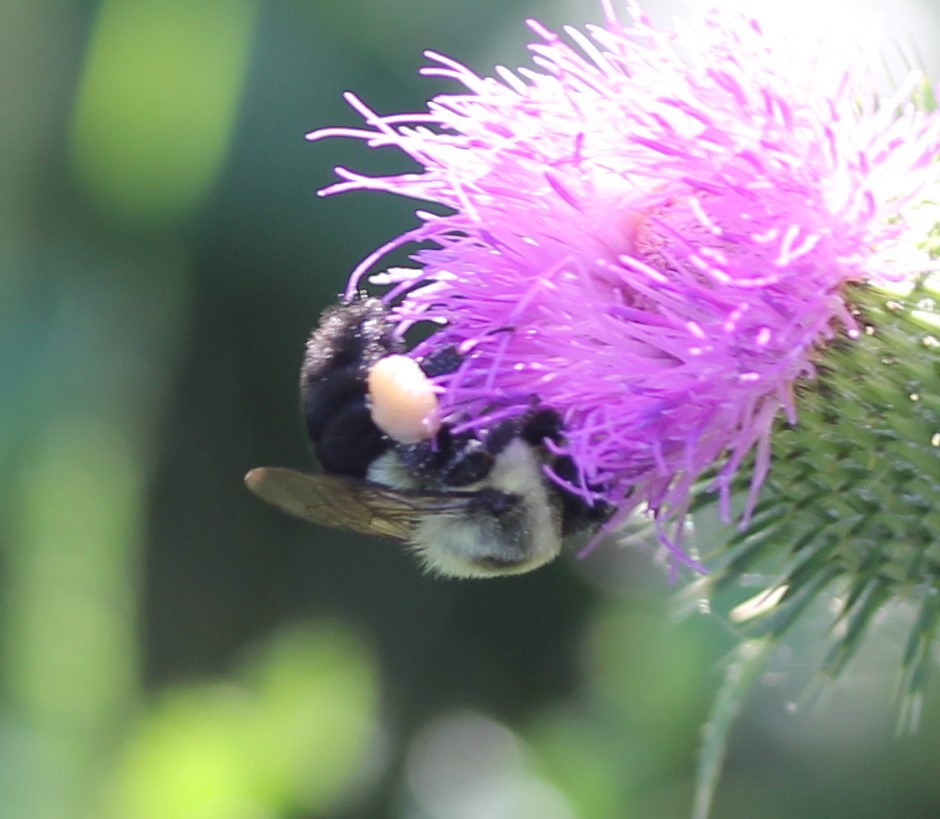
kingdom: Animalia
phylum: Arthropoda
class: Insecta
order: Hymenoptera
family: Apidae
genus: Bombus
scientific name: Bombus impatiens
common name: Common eastern bumble bee
